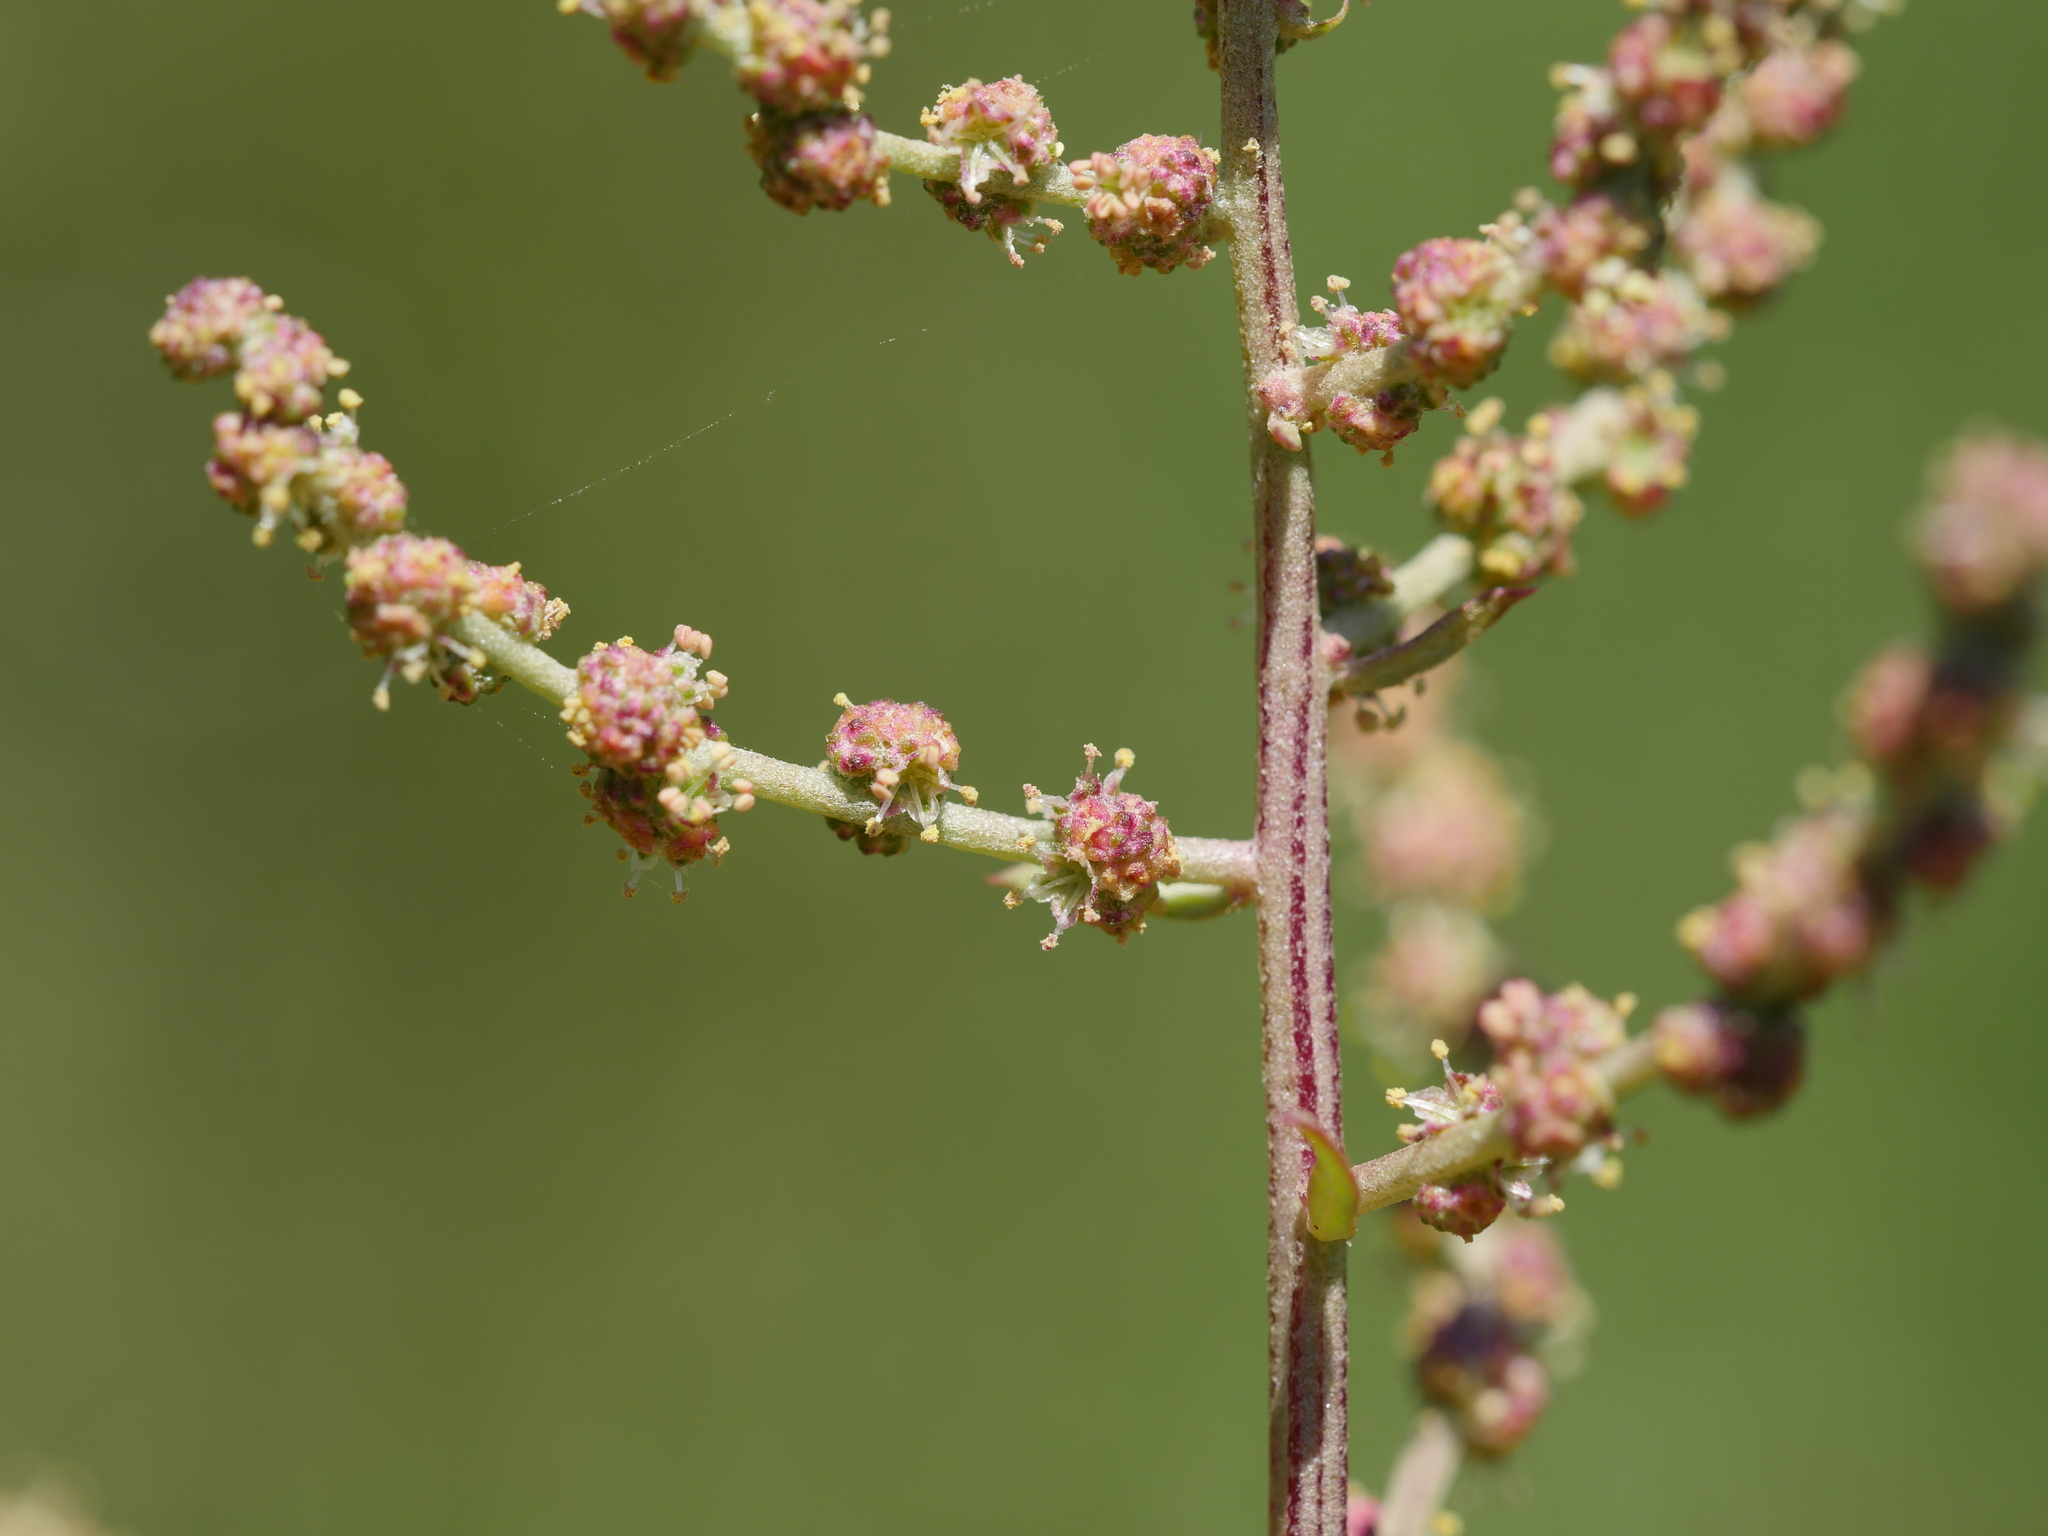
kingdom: Plantae
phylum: Tracheophyta
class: Magnoliopsida
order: Caryophyllales
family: Amaranthaceae
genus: Atriplex
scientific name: Atriplex prostrata
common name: Spear-leaved orache
